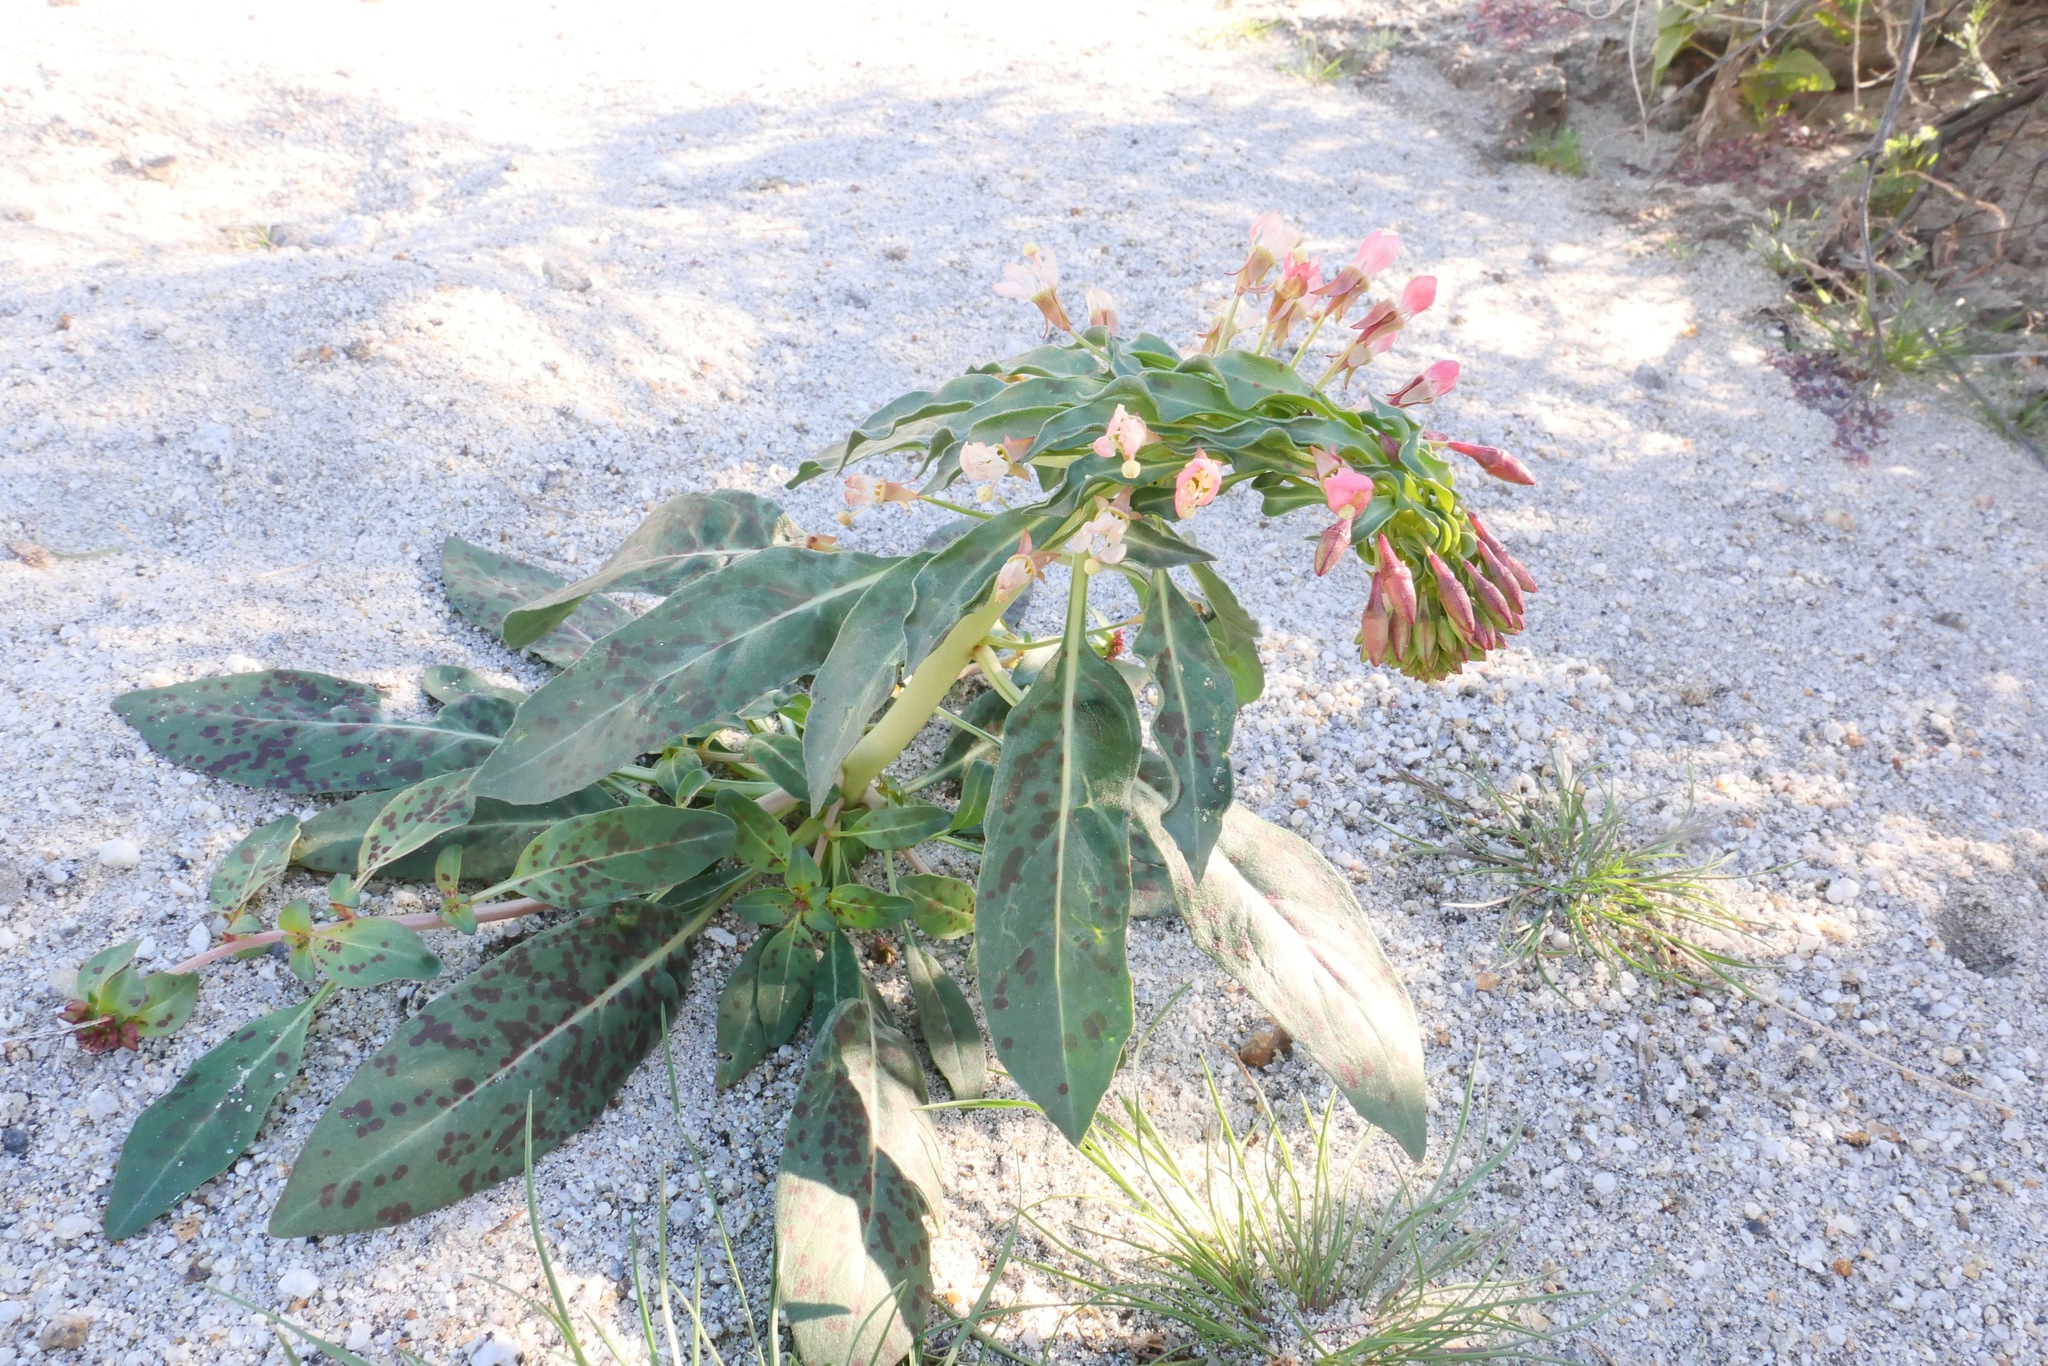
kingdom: Plantae
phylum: Tracheophyta
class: Magnoliopsida
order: Myrtales
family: Onagraceae
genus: Eremothera
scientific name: Eremothera boothii
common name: Booth's evening primrose
